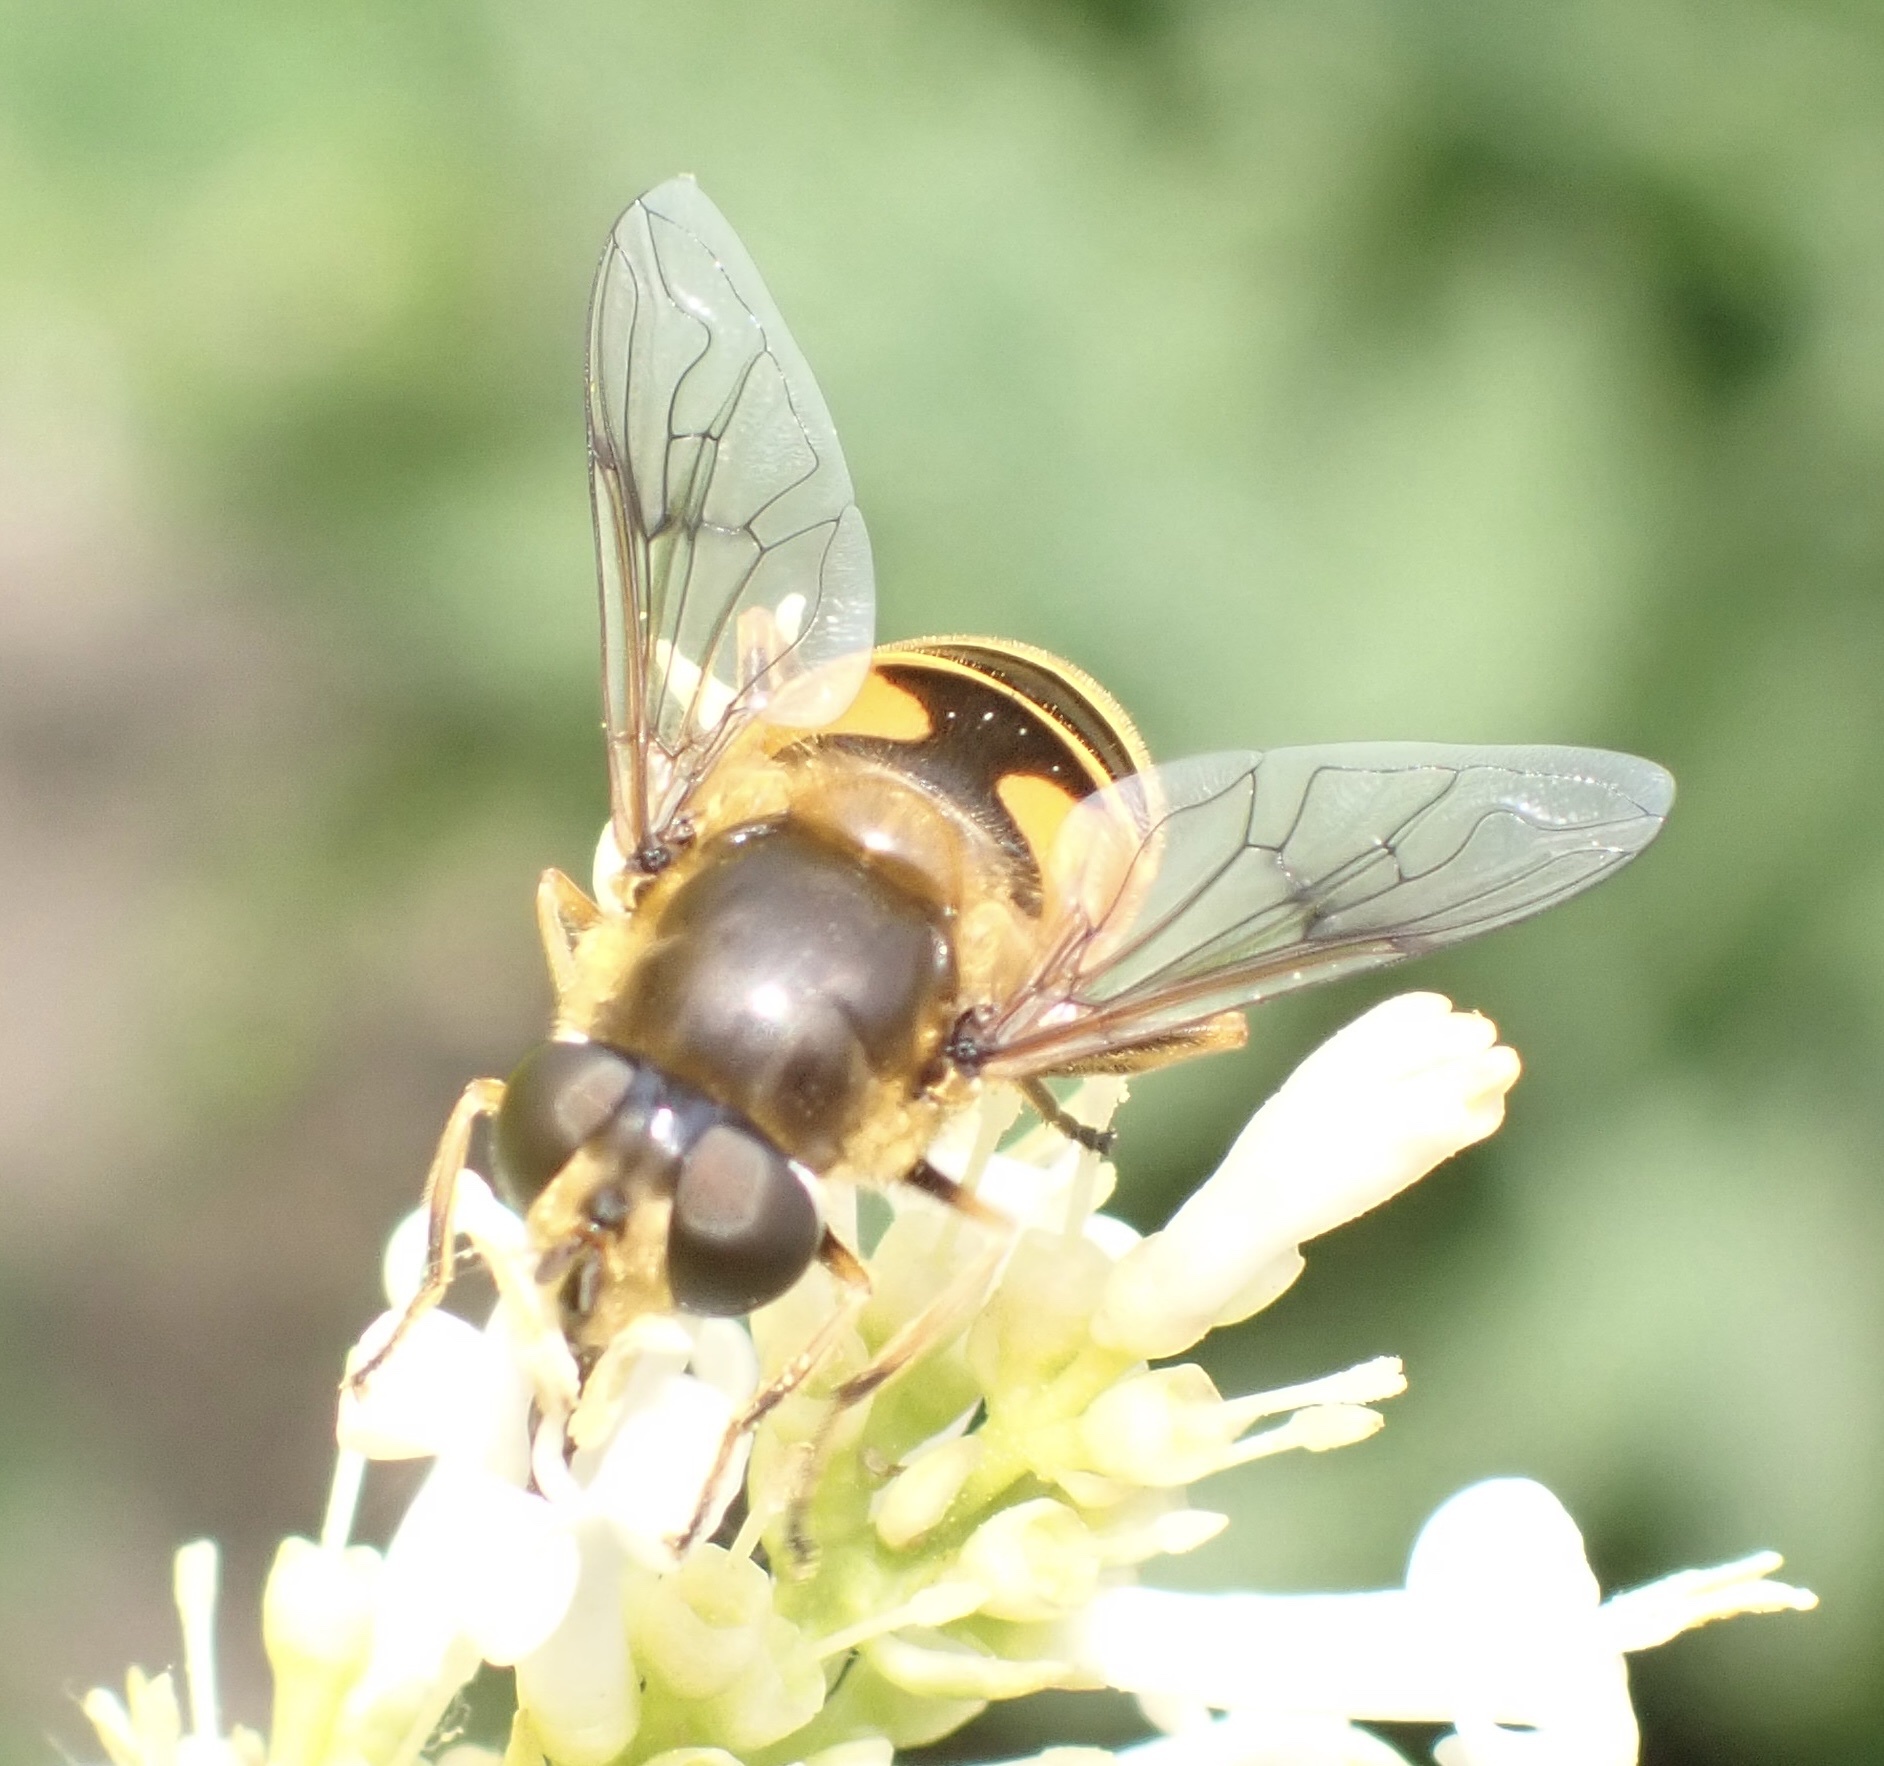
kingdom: Animalia
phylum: Arthropoda
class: Insecta
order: Diptera
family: Syrphidae
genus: Cheilosia
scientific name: Cheilosia morio
